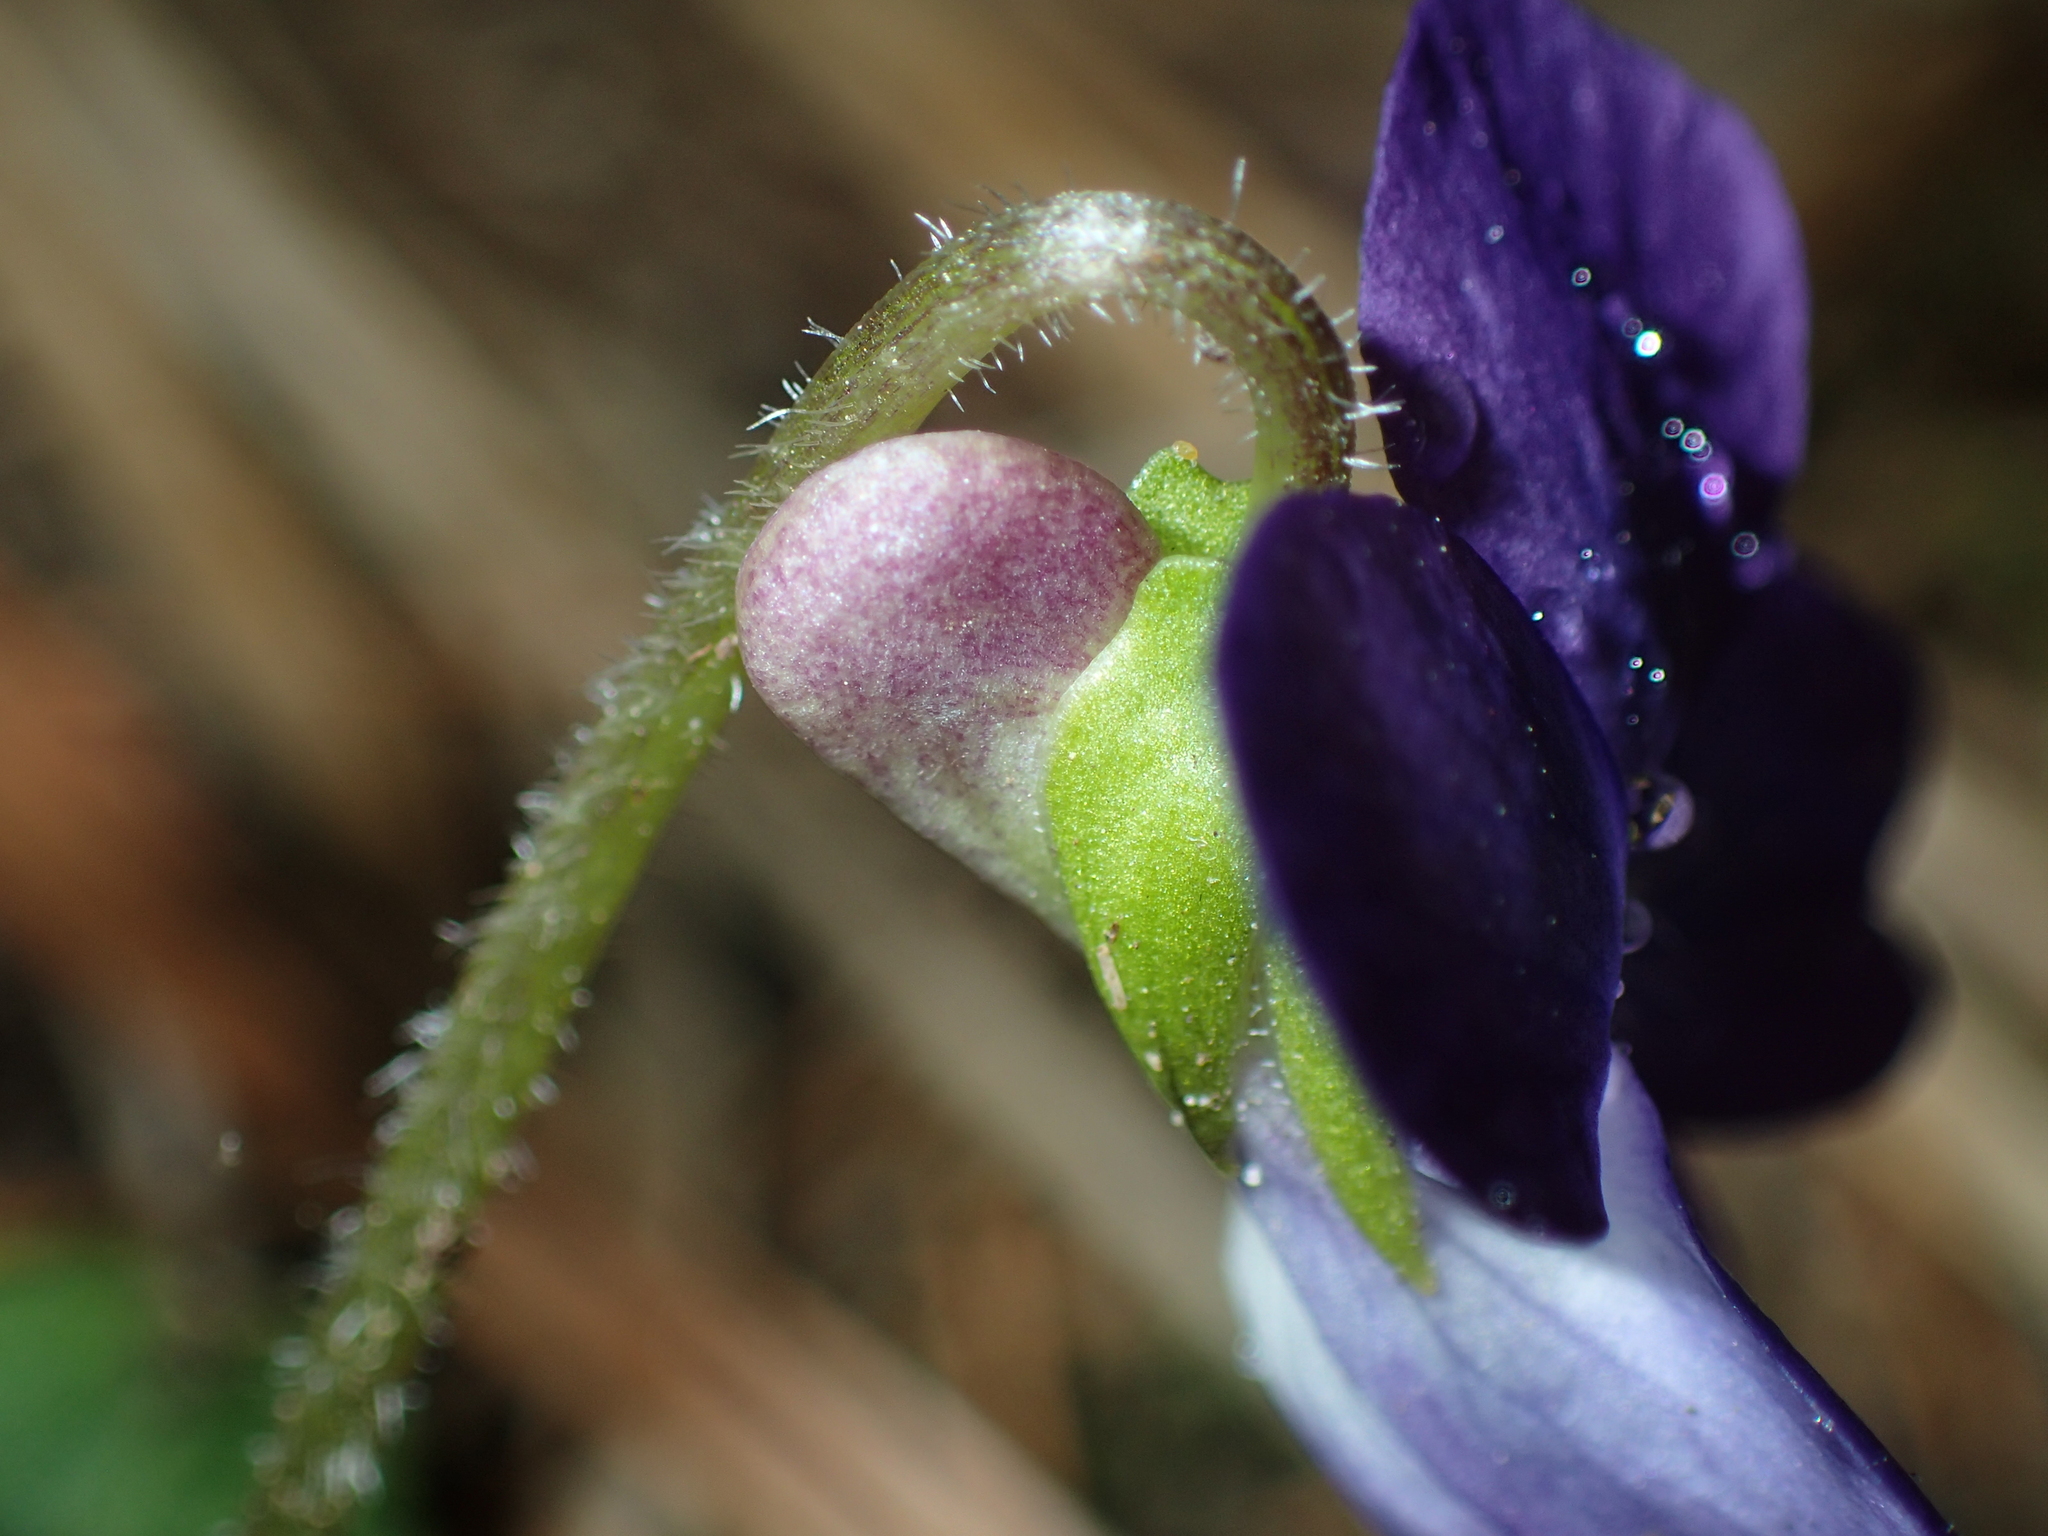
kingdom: Plantae
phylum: Tracheophyta
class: Magnoliopsida
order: Malpighiales
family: Violaceae
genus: Viola
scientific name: Viola fimbriatula
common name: Sand violet
